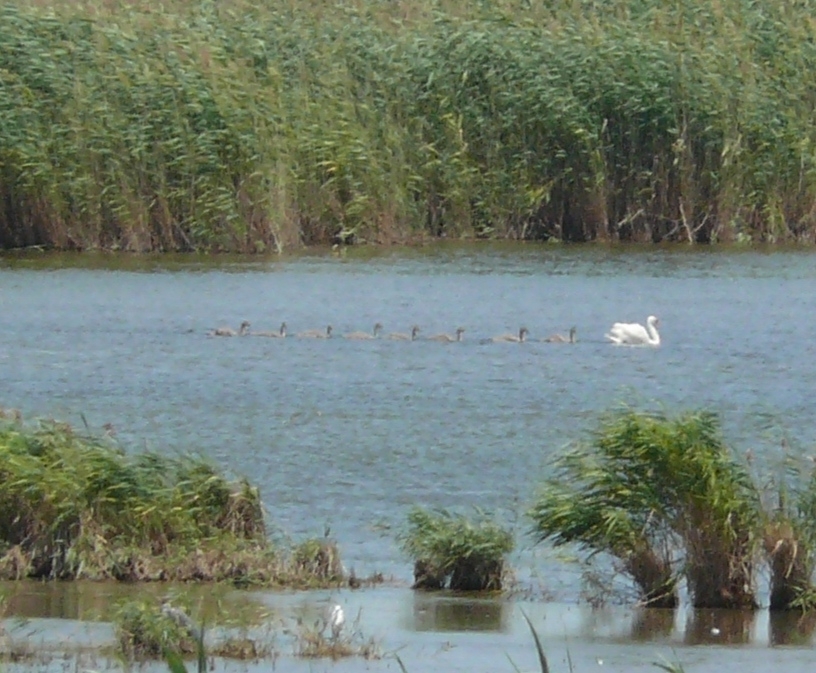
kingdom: Animalia
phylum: Chordata
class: Aves
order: Anseriformes
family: Anatidae
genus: Cygnus
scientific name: Cygnus olor
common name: Mute swan
